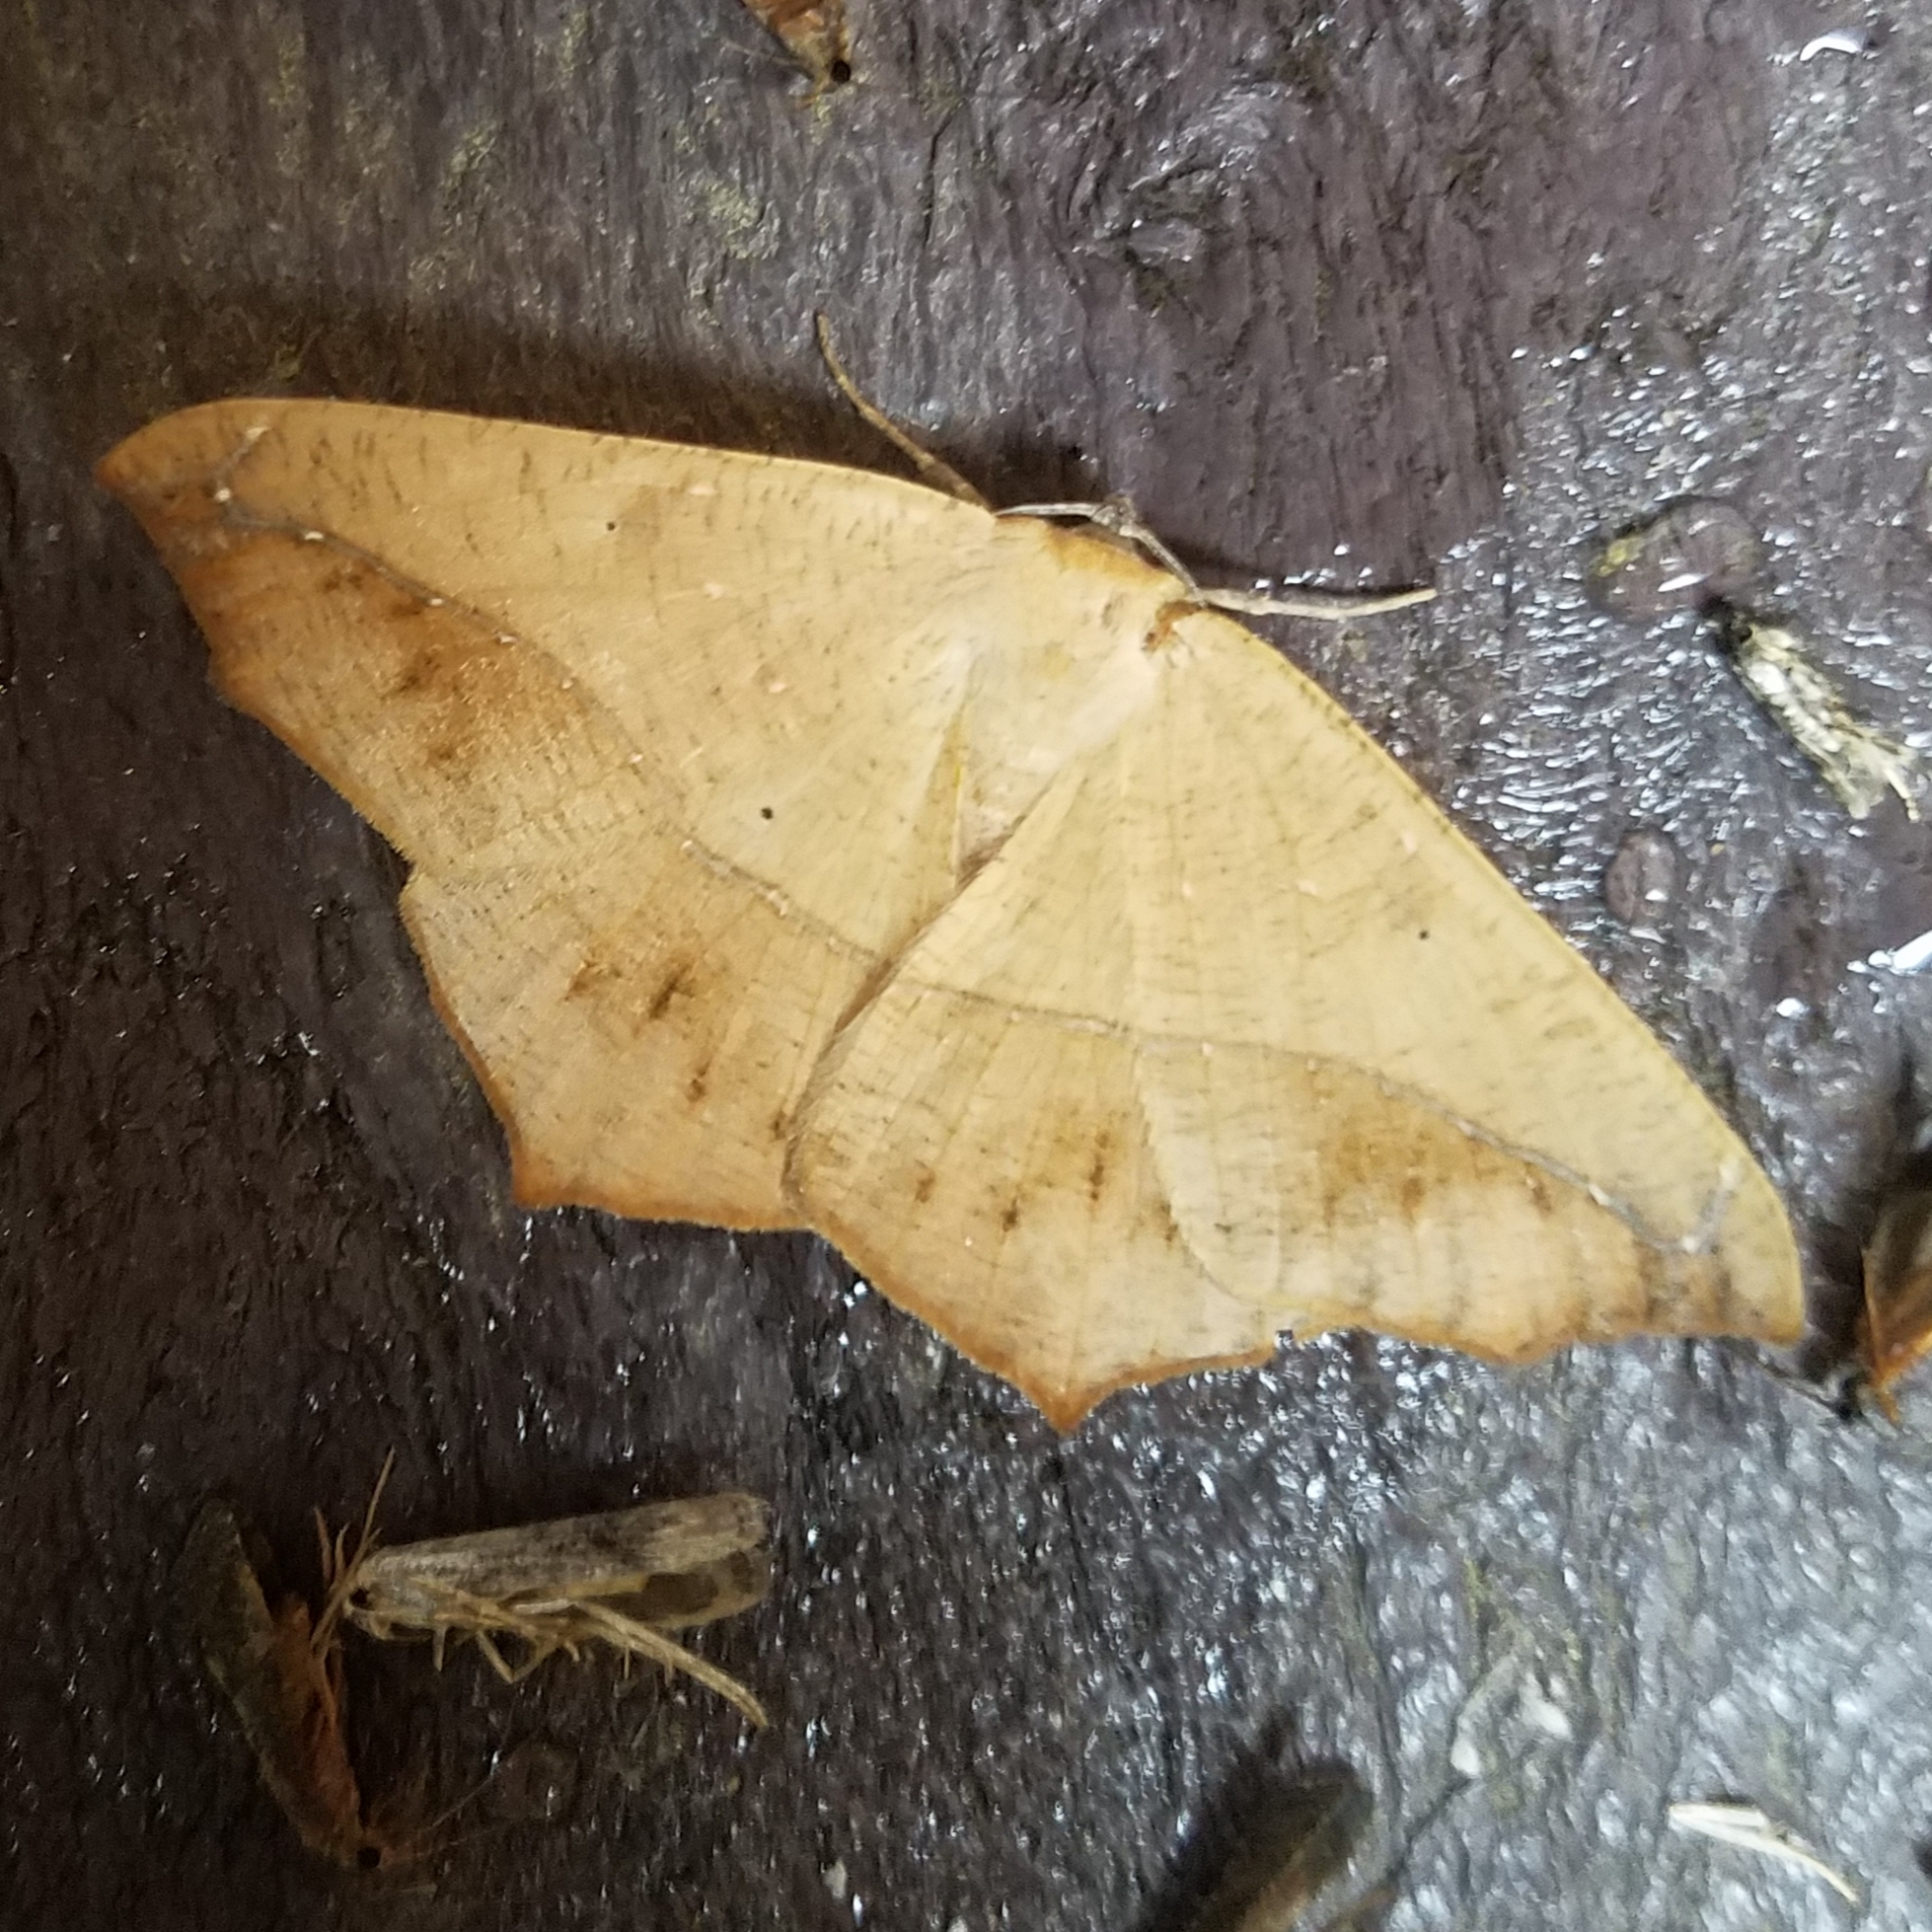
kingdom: Animalia
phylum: Arthropoda
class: Insecta
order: Lepidoptera
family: Geometridae
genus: Prochoerodes
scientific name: Prochoerodes lineola
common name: Large maple spanworm
